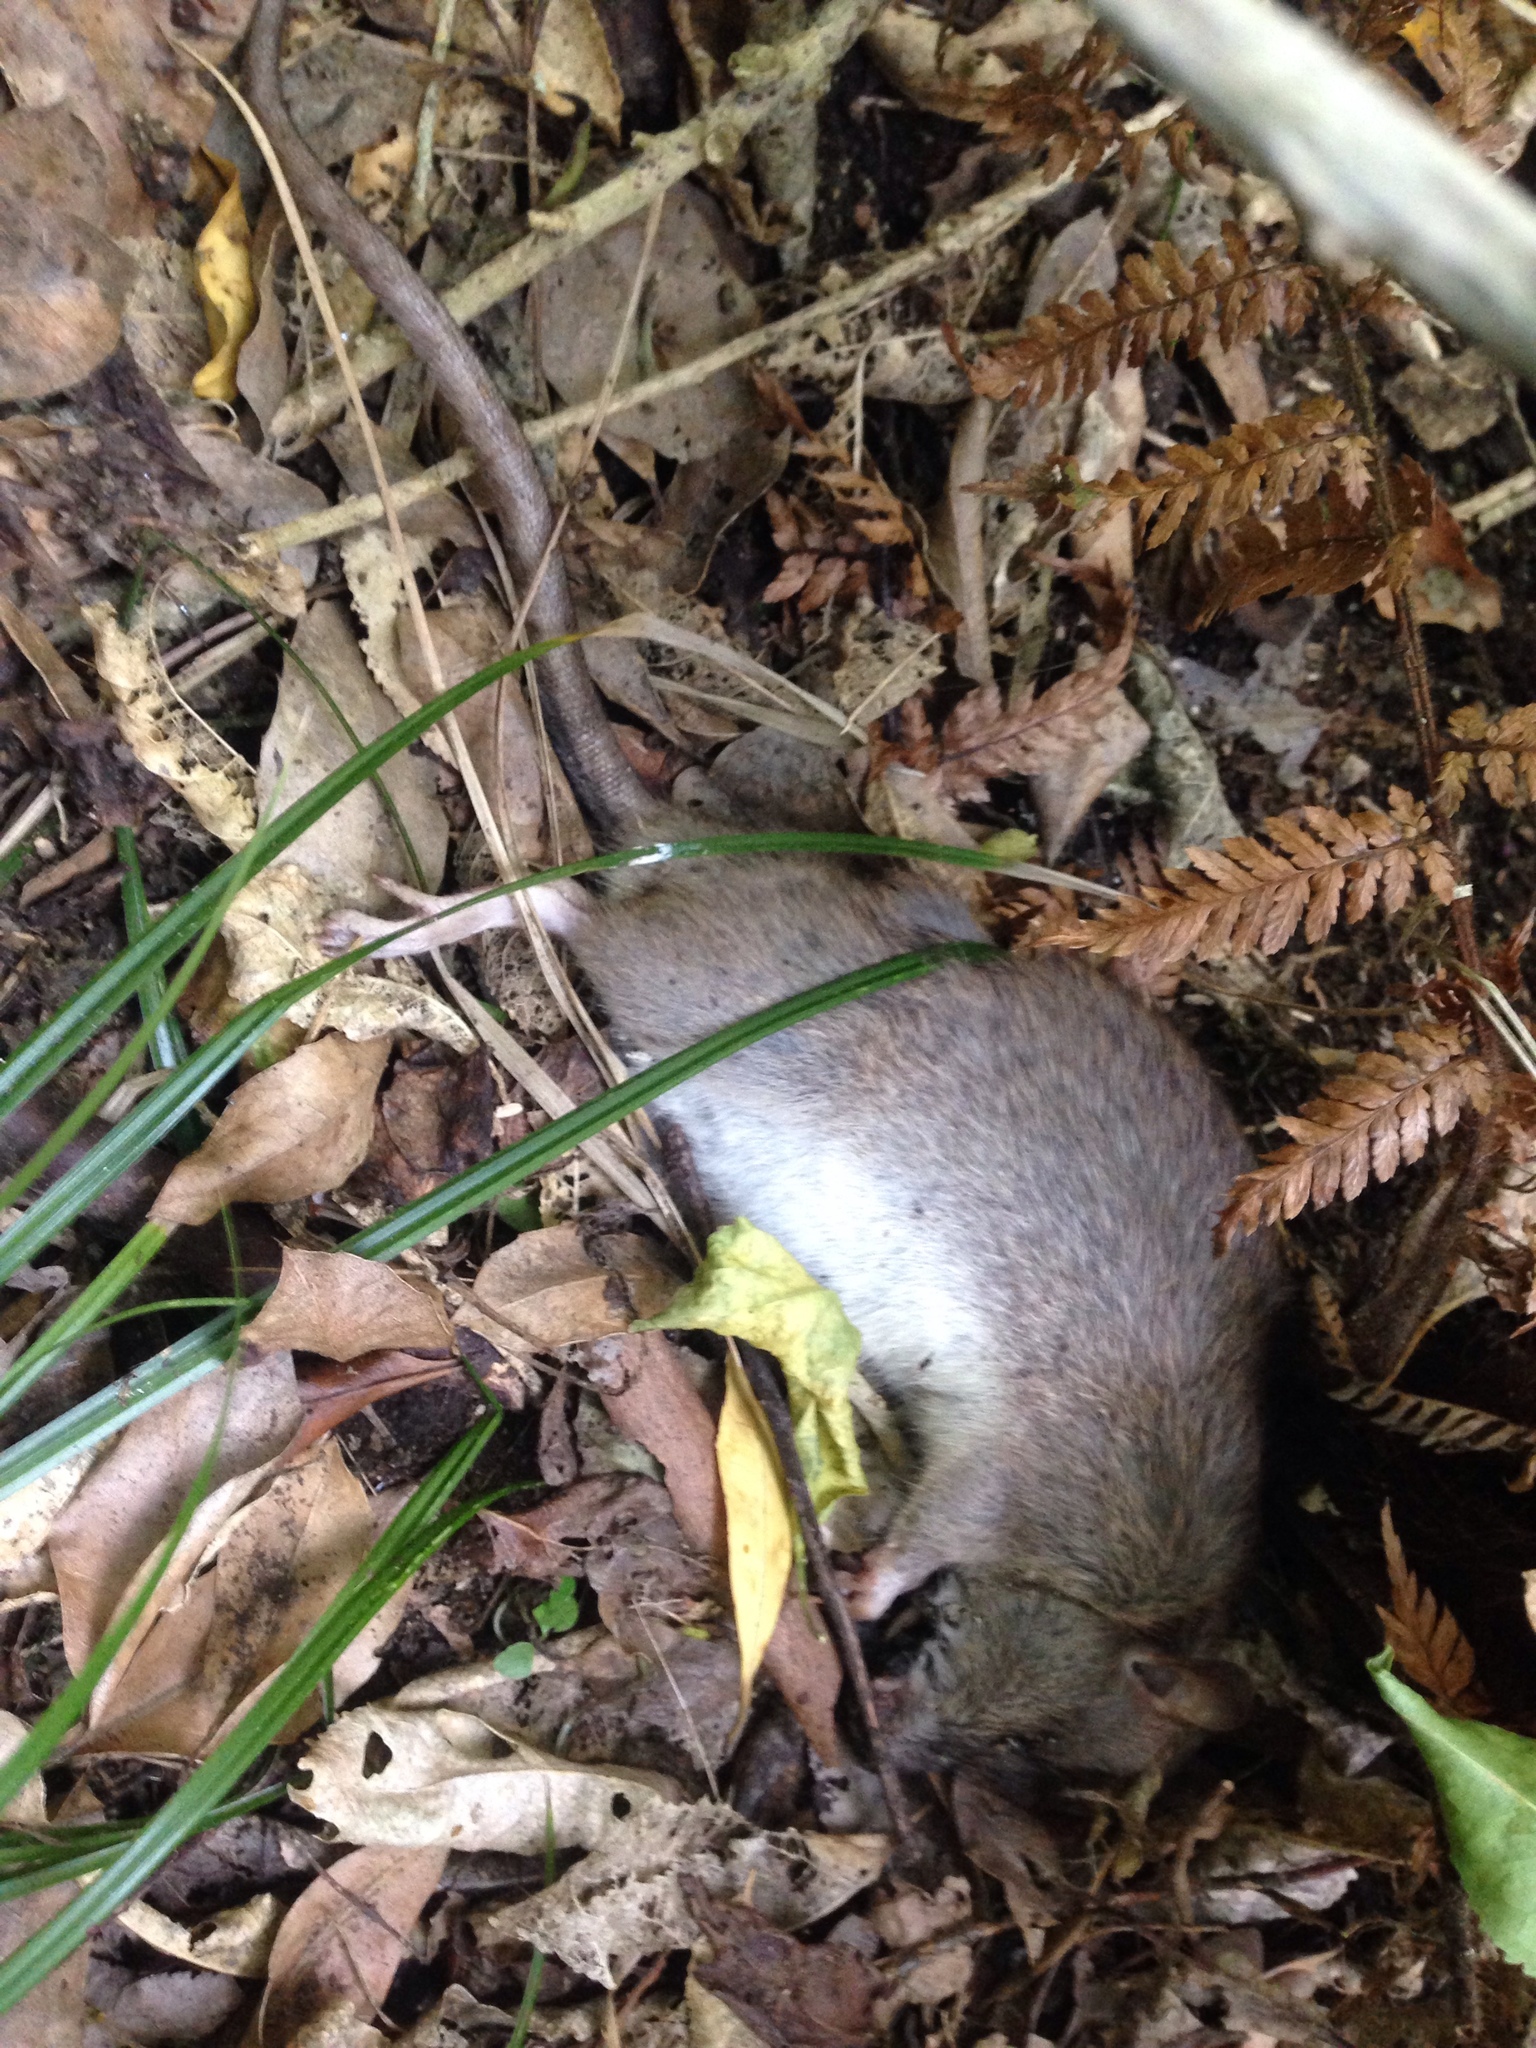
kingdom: Animalia
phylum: Chordata
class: Mammalia
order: Rodentia
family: Muridae
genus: Rattus
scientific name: Rattus norvegicus
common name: Brown rat
